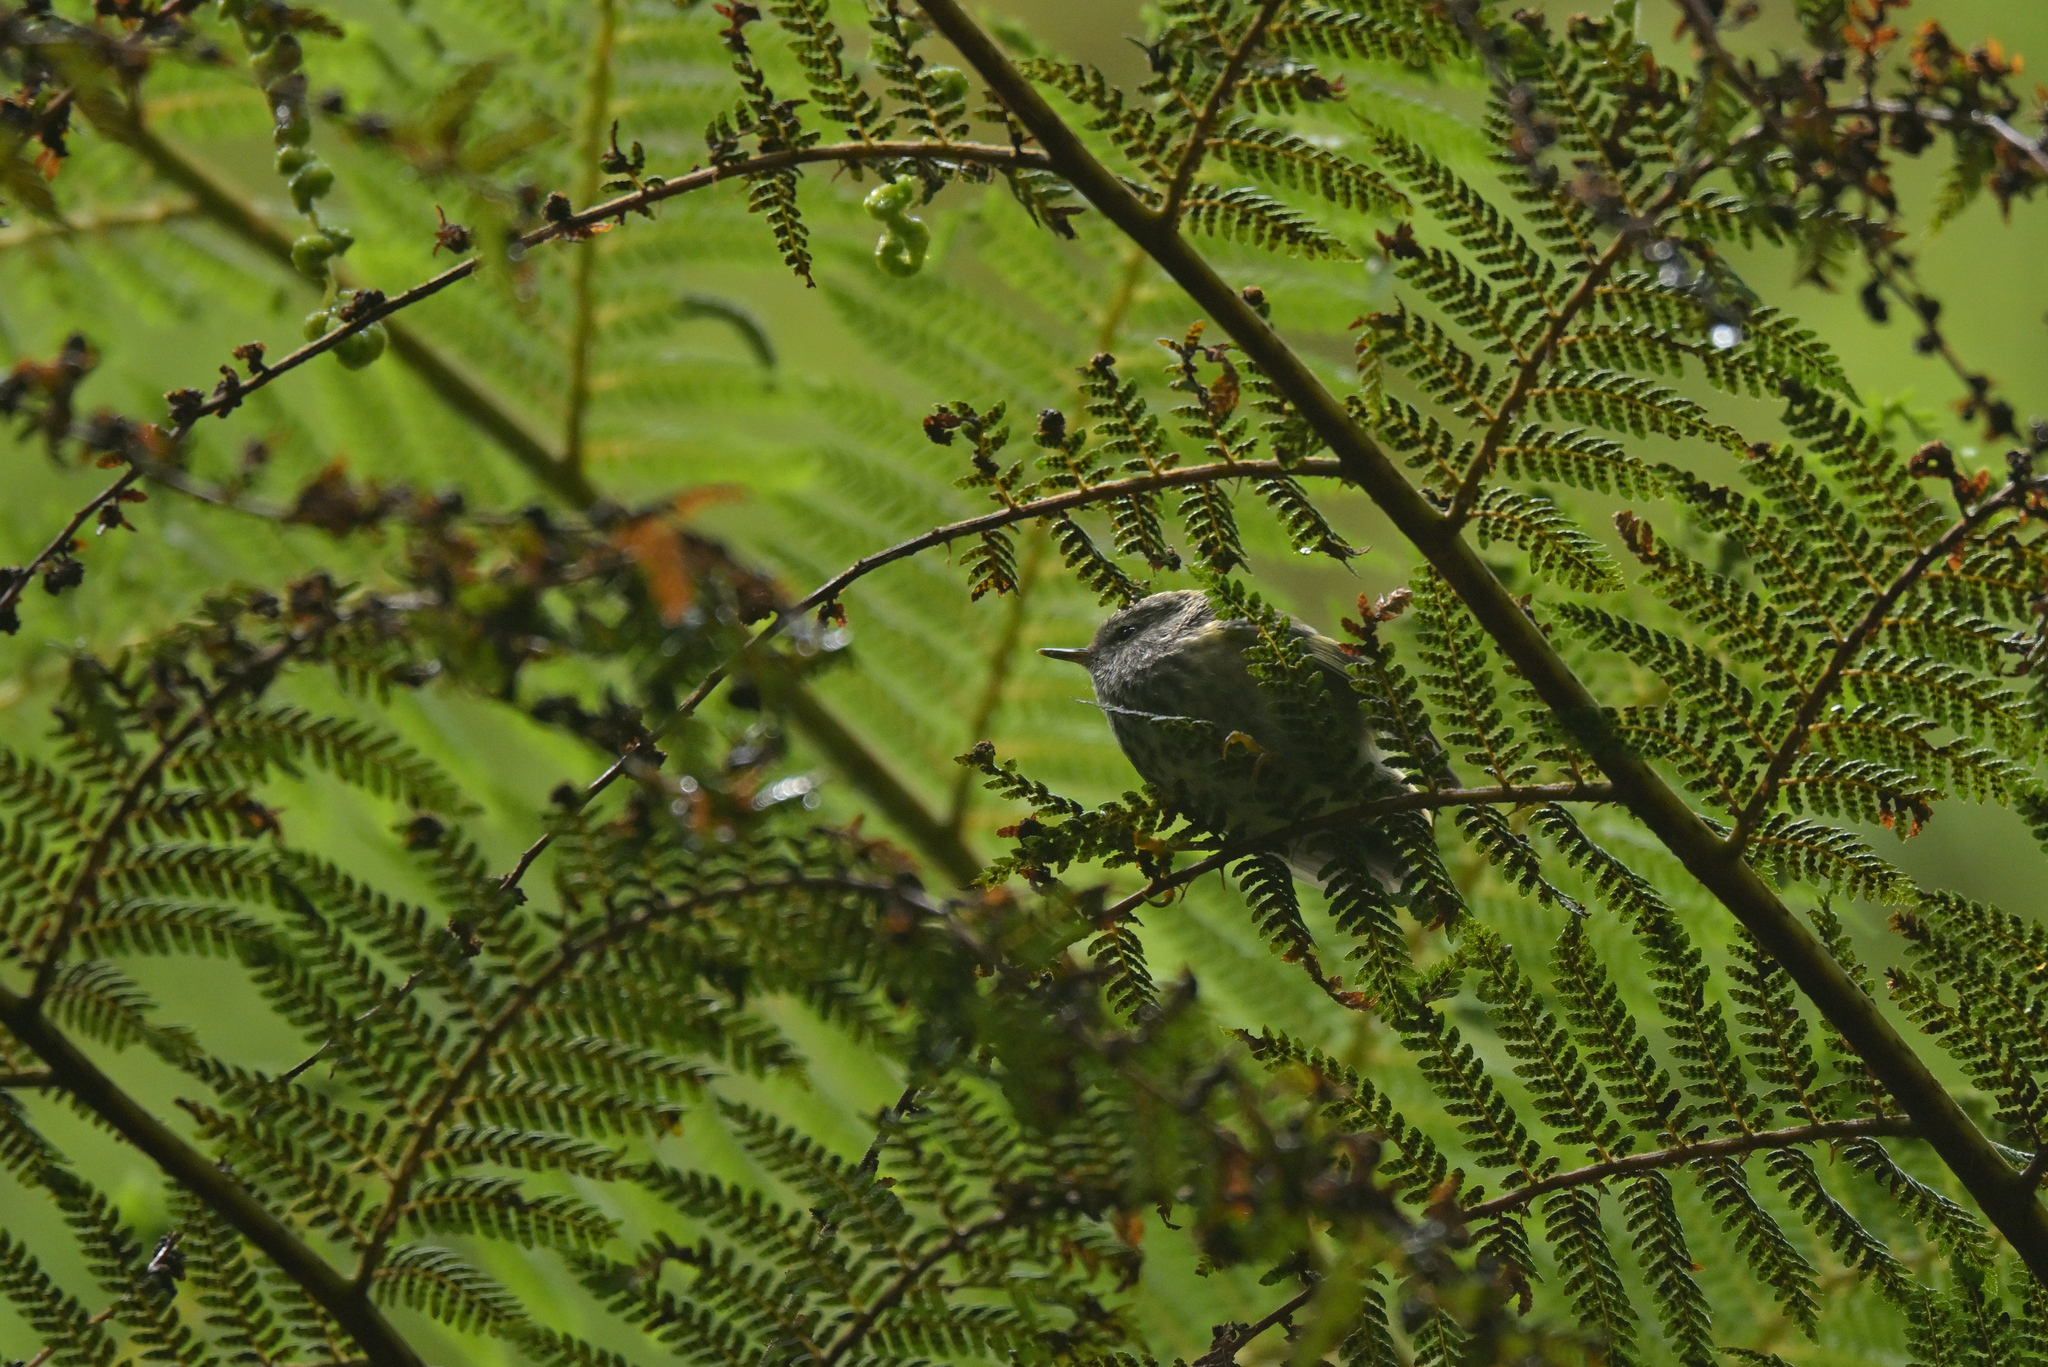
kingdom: Animalia
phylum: Chordata
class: Aves
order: Passeriformes
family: Acanthisittidae
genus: Acanthisitta
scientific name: Acanthisitta chloris
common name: Rifleman
